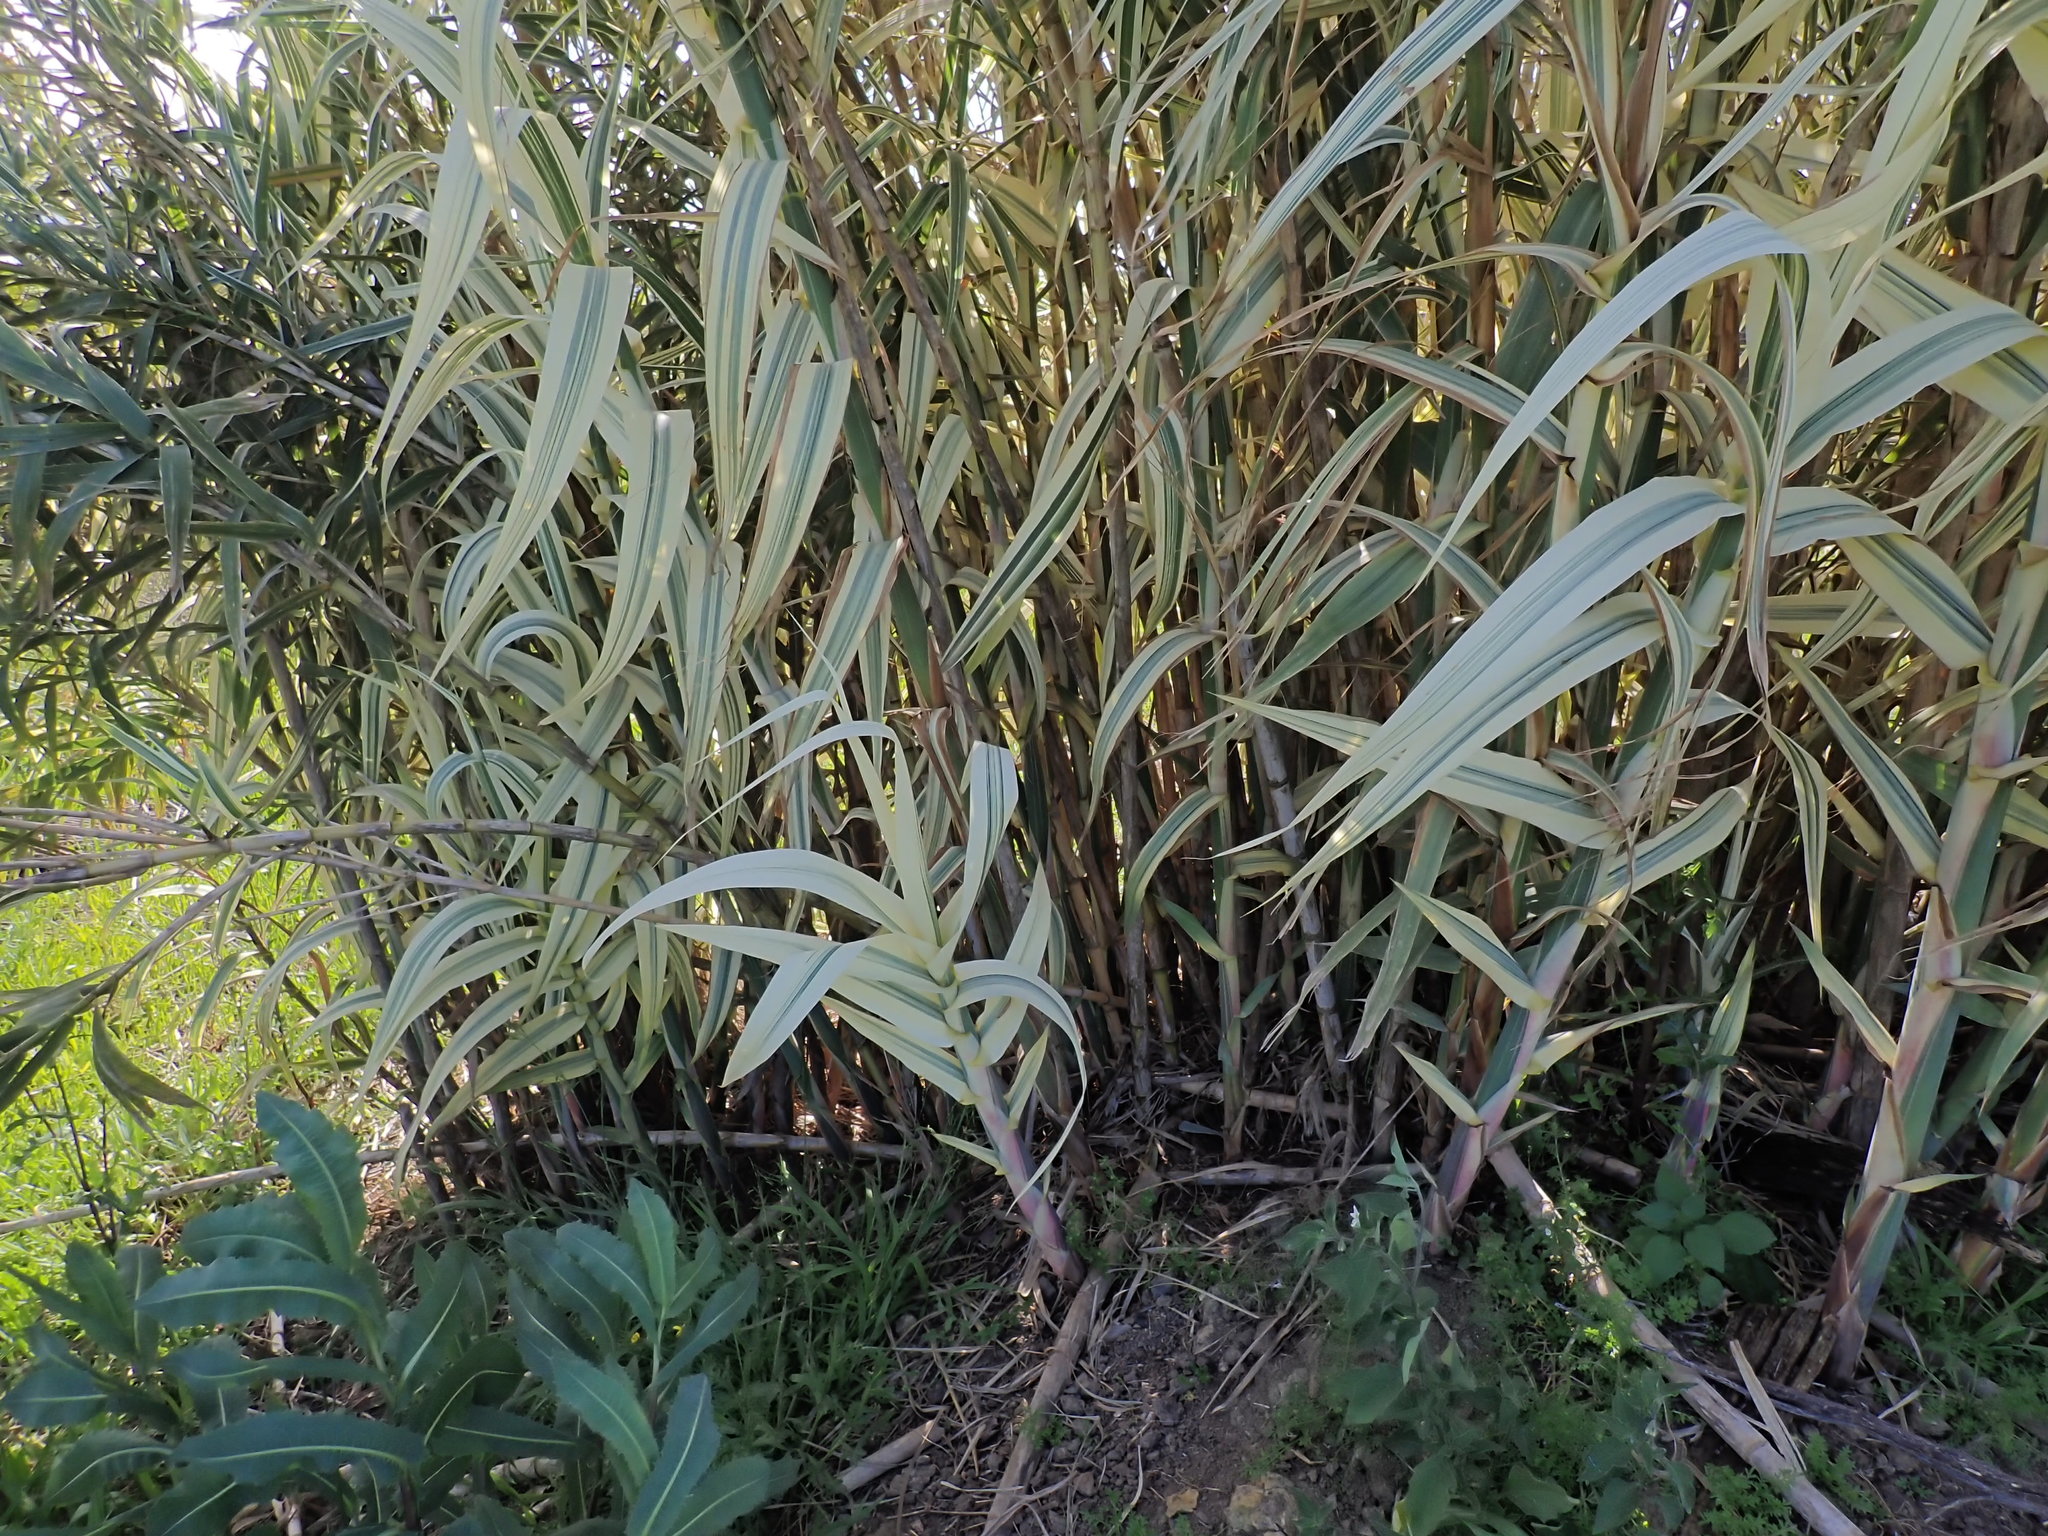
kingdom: Plantae
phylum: Tracheophyta
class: Liliopsida
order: Poales
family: Poaceae
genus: Arundo
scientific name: Arundo donax
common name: Giant reed
